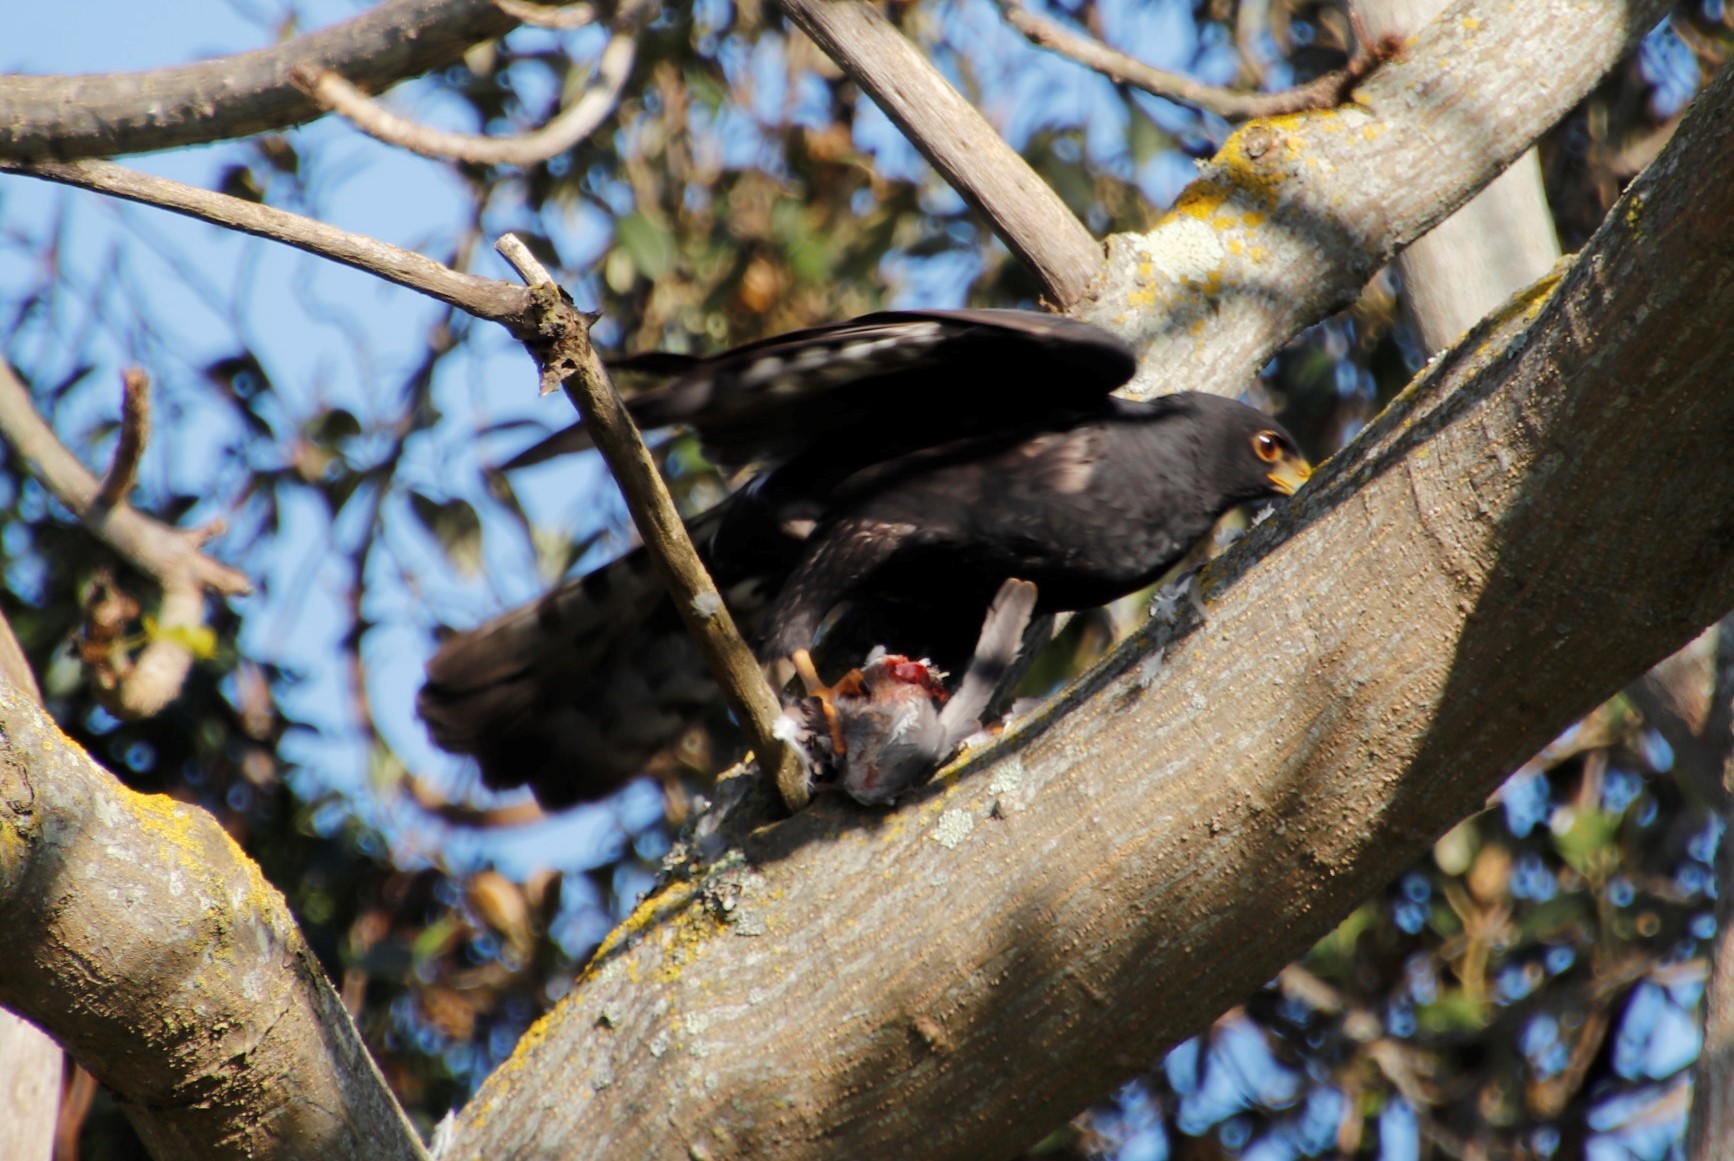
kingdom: Animalia
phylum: Chordata
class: Aves
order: Accipitriformes
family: Accipitridae
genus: Accipiter
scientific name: Accipiter melanoleucus
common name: Black sparrowhawk
